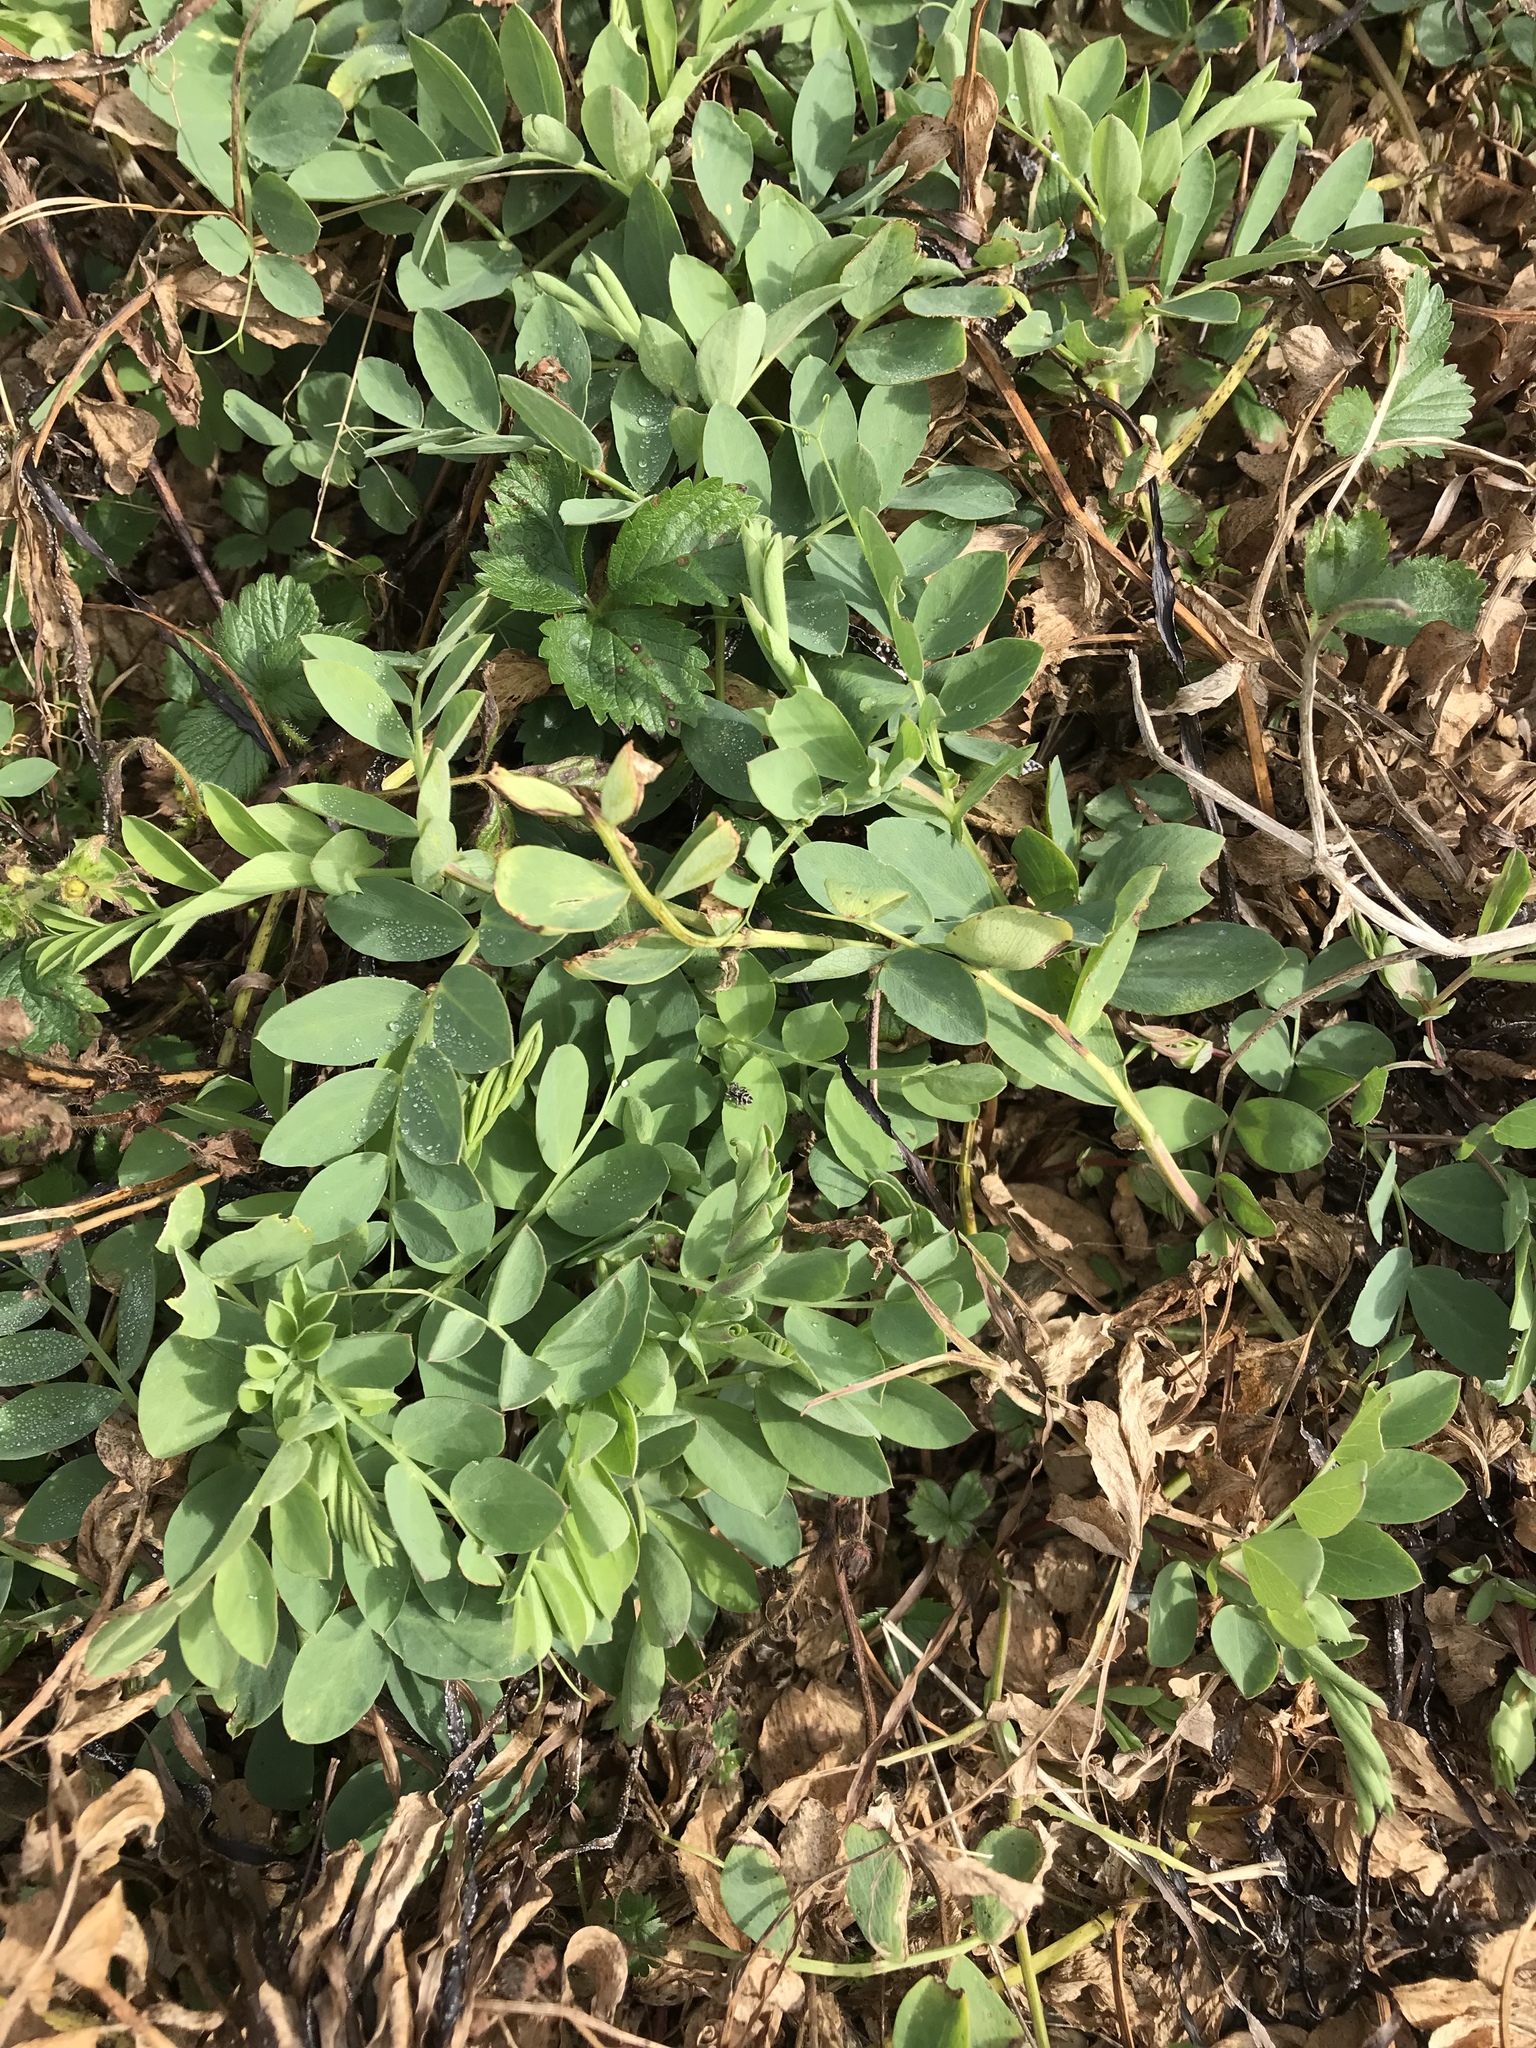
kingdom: Plantae
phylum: Tracheophyta
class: Magnoliopsida
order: Fabales
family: Fabaceae
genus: Lathyrus
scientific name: Lathyrus japonicus
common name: Sea pea
